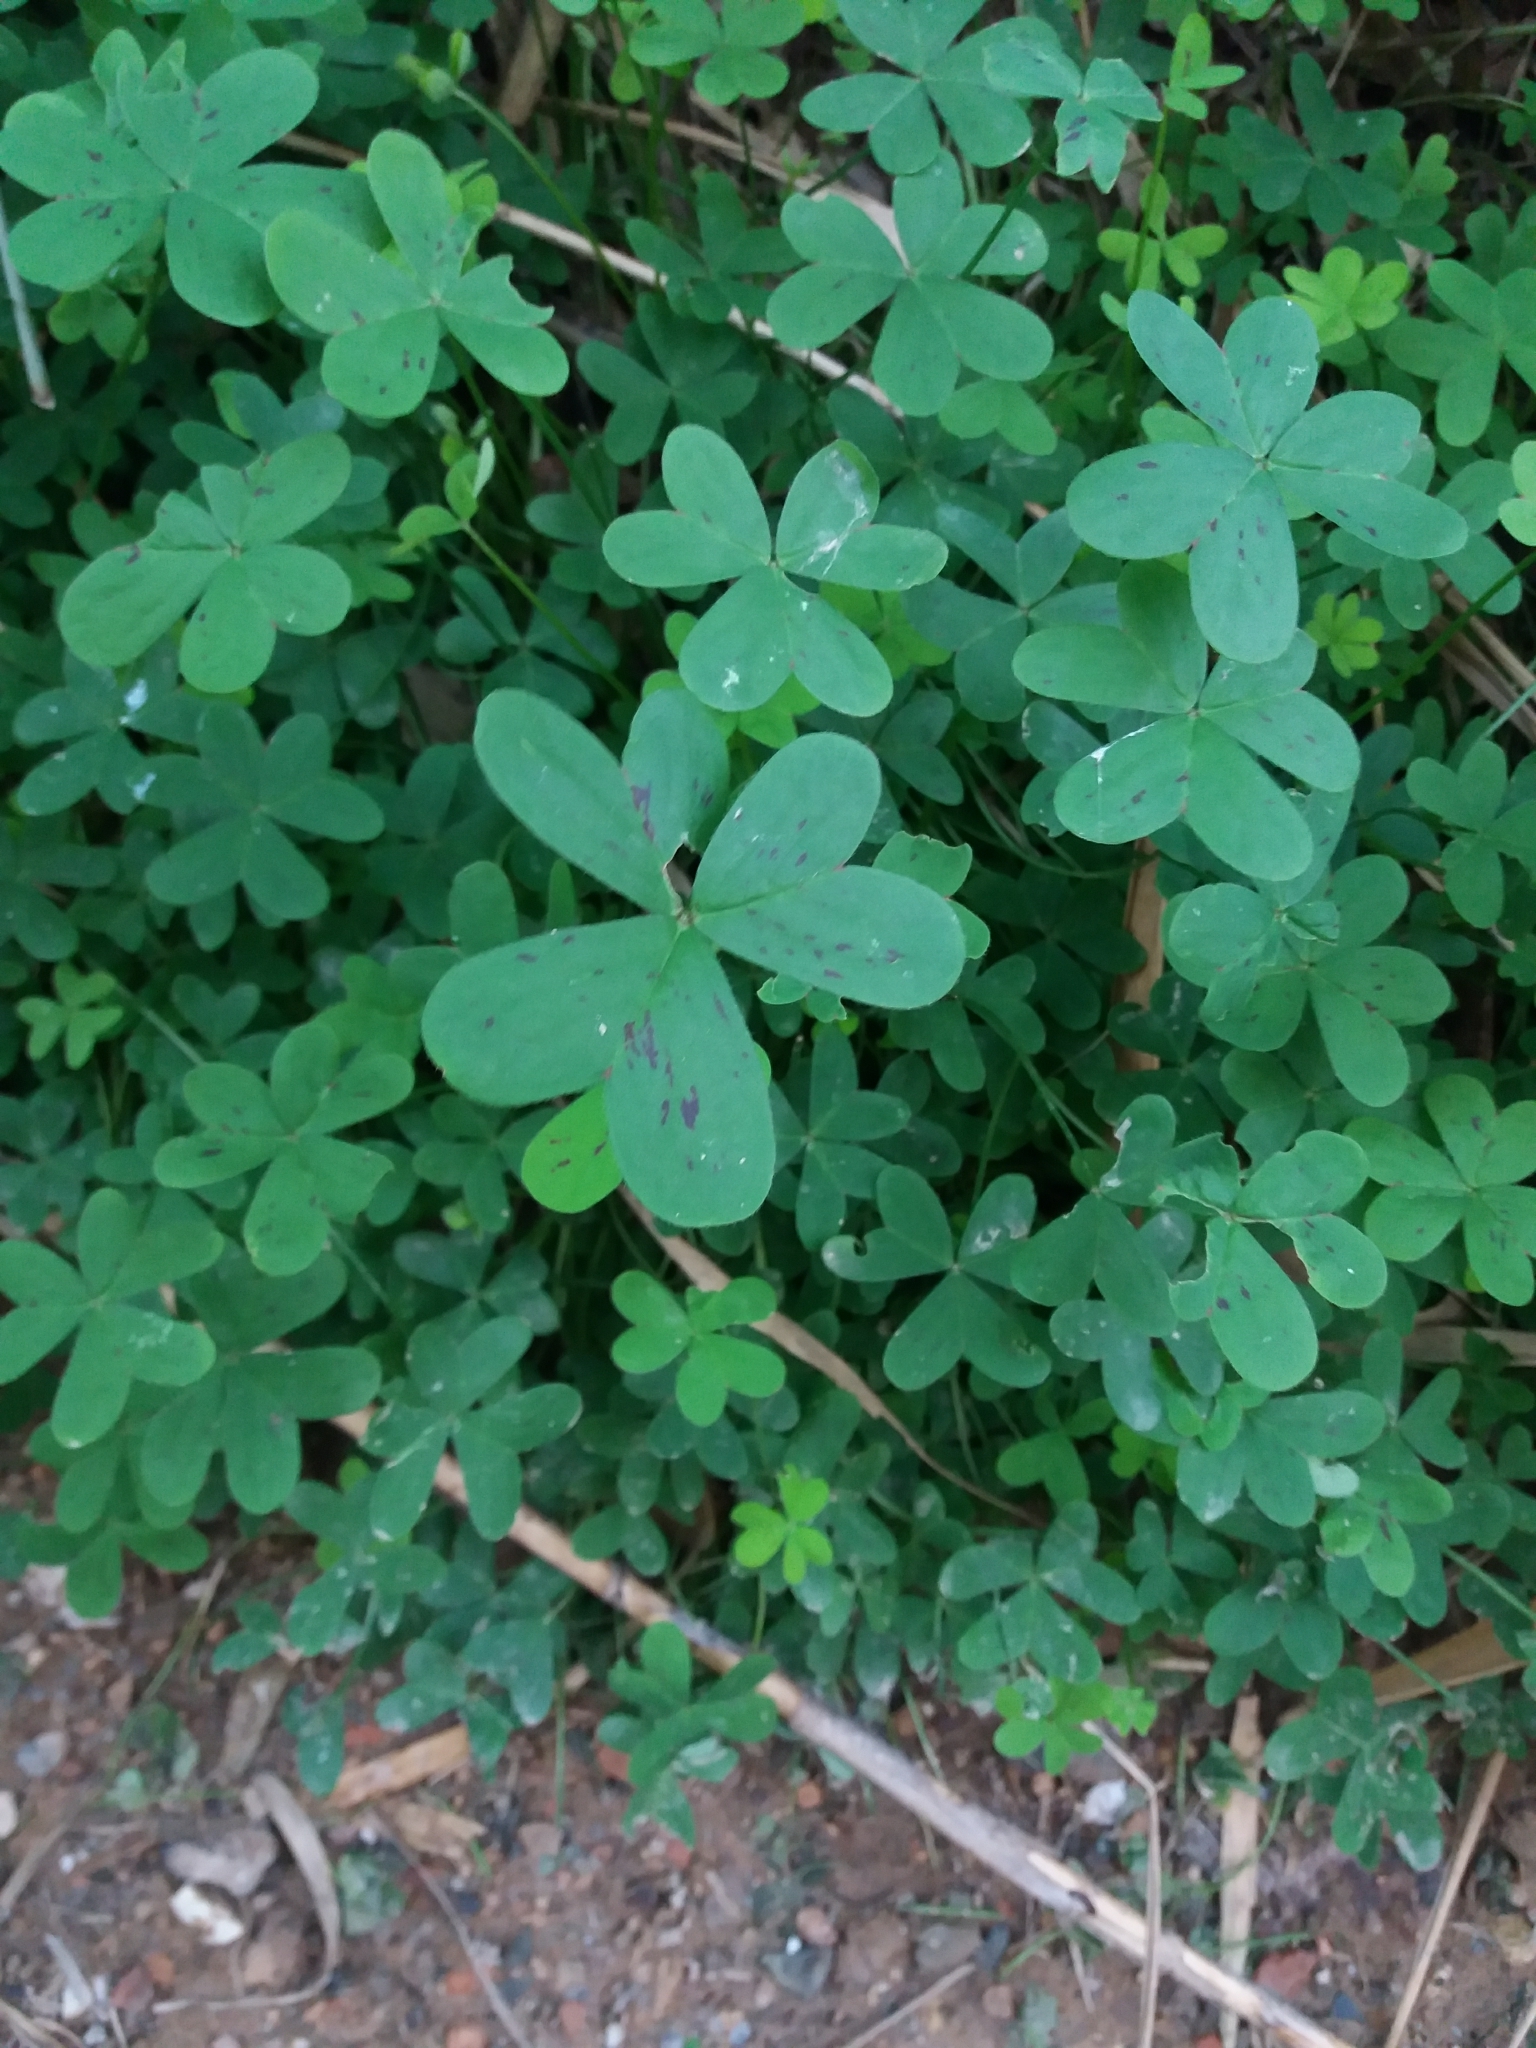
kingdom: Plantae
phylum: Tracheophyta
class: Magnoliopsida
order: Oxalidales
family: Oxalidaceae
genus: Oxalis
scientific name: Oxalis pes-caprae
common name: Bermuda-buttercup
